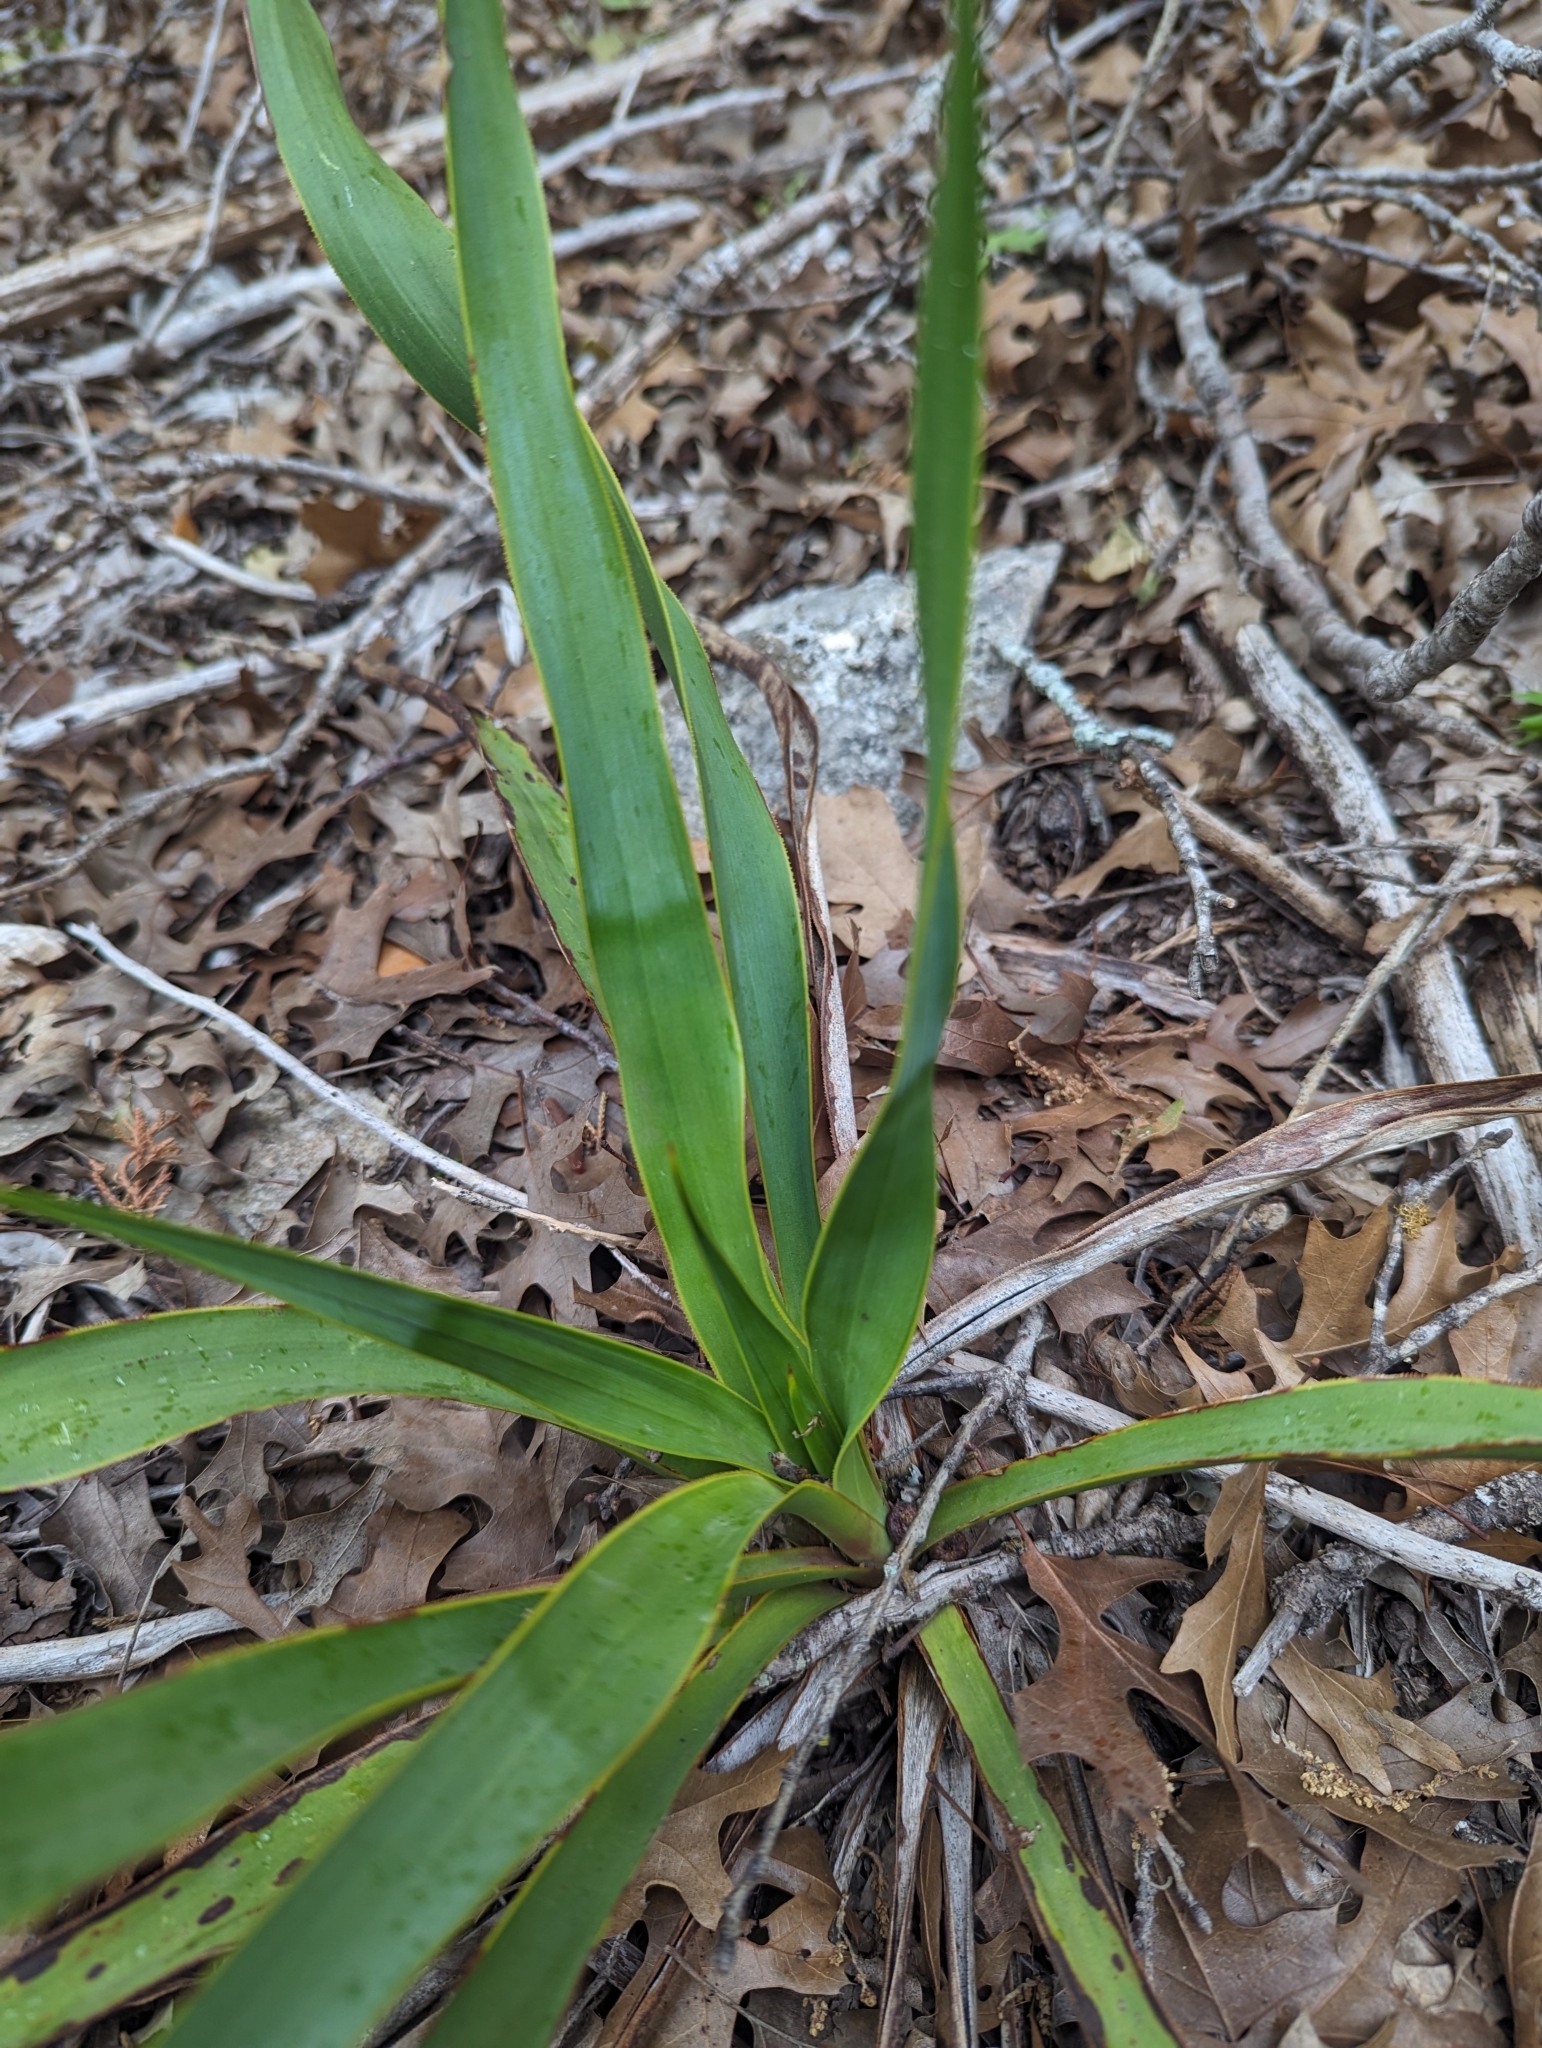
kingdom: Plantae
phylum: Tracheophyta
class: Liliopsida
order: Asparagales
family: Asparagaceae
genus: Yucca
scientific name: Yucca rupicola
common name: Twisted-leaf spanish-dagger
